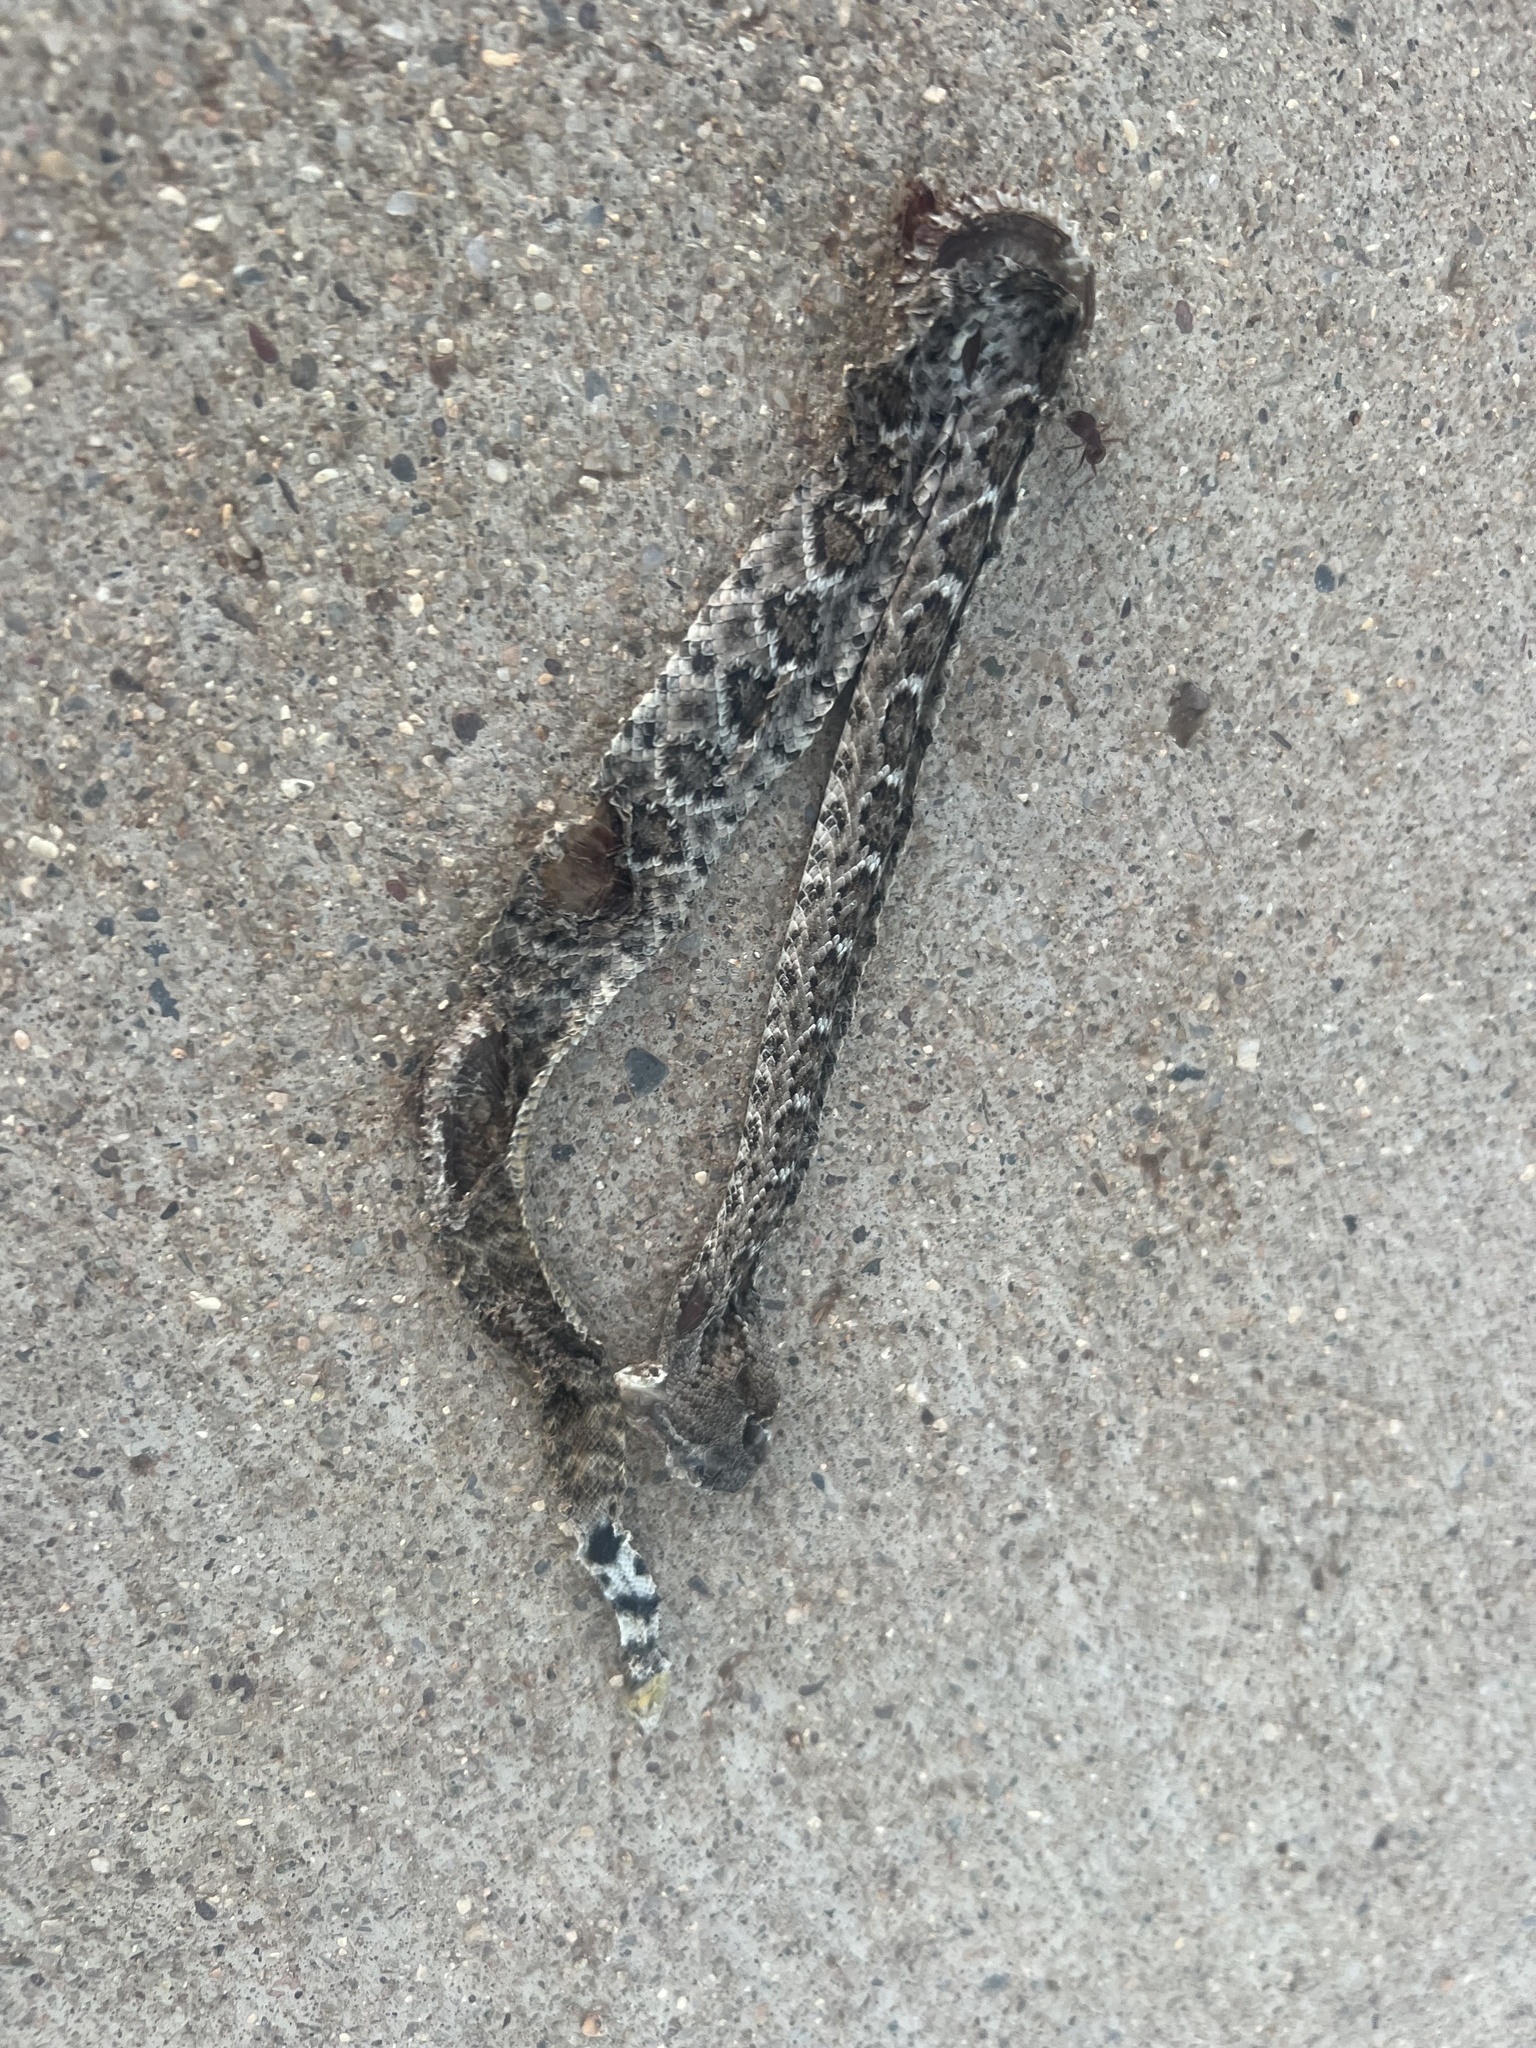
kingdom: Animalia
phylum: Chordata
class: Squamata
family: Viperidae
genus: Crotalus
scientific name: Crotalus atrox
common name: Western diamond-backed rattlesnake
